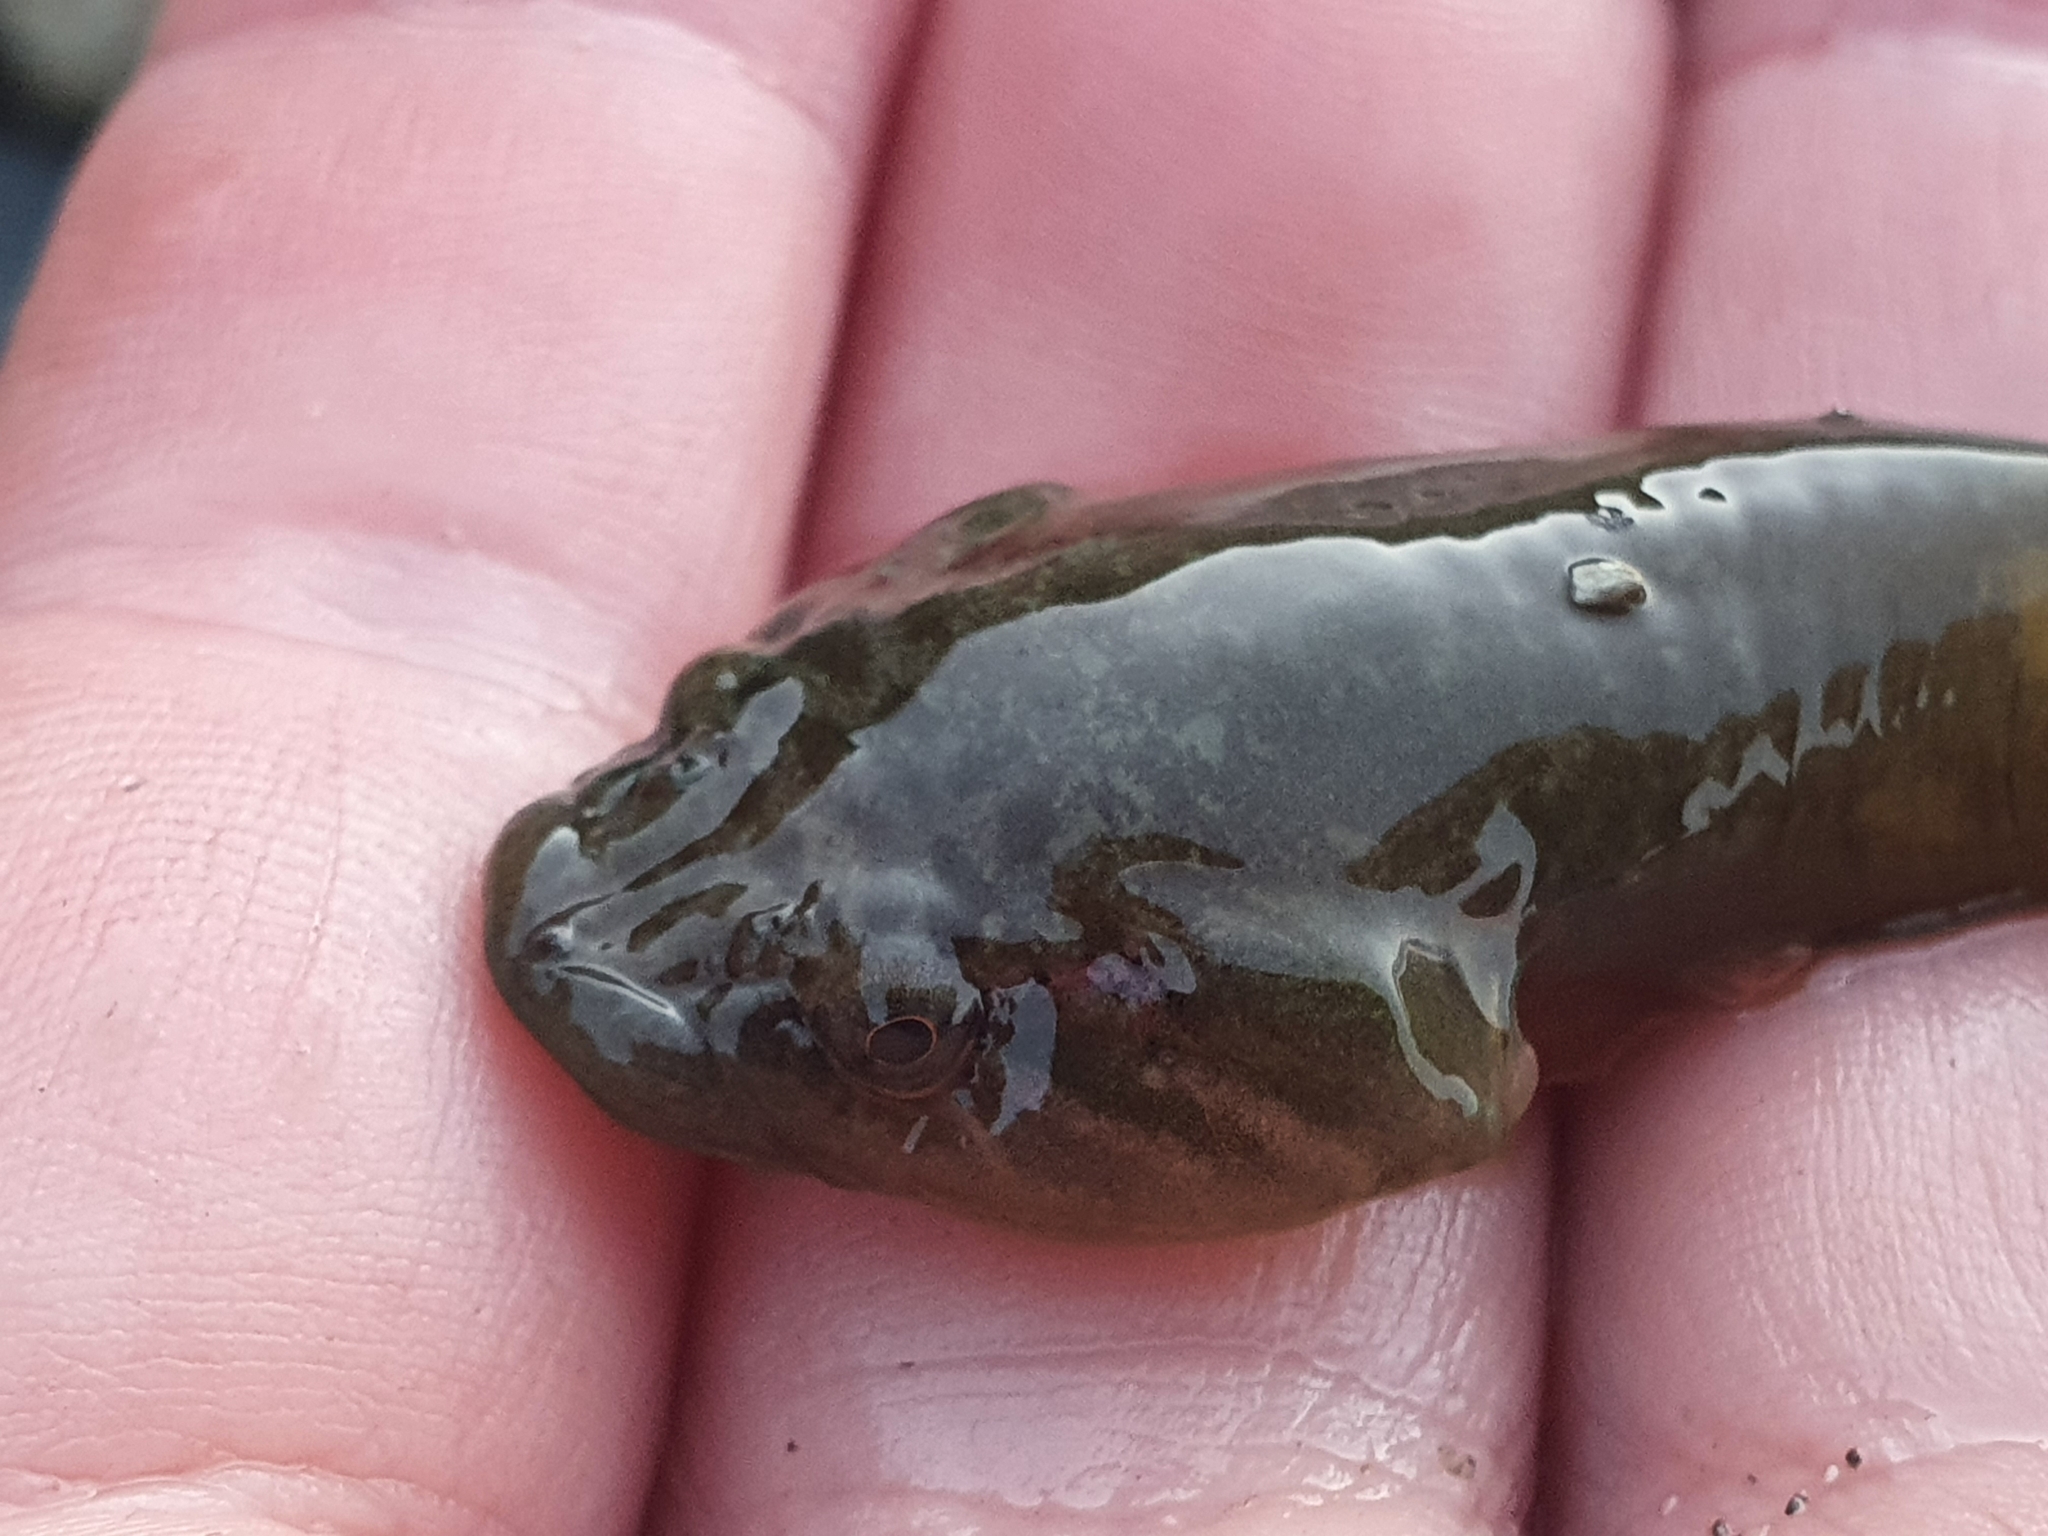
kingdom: Animalia
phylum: Chordata
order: Gobiesociformes
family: Gobiesocidae
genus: Trachelochismus
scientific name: Trachelochismus pinnulatus
